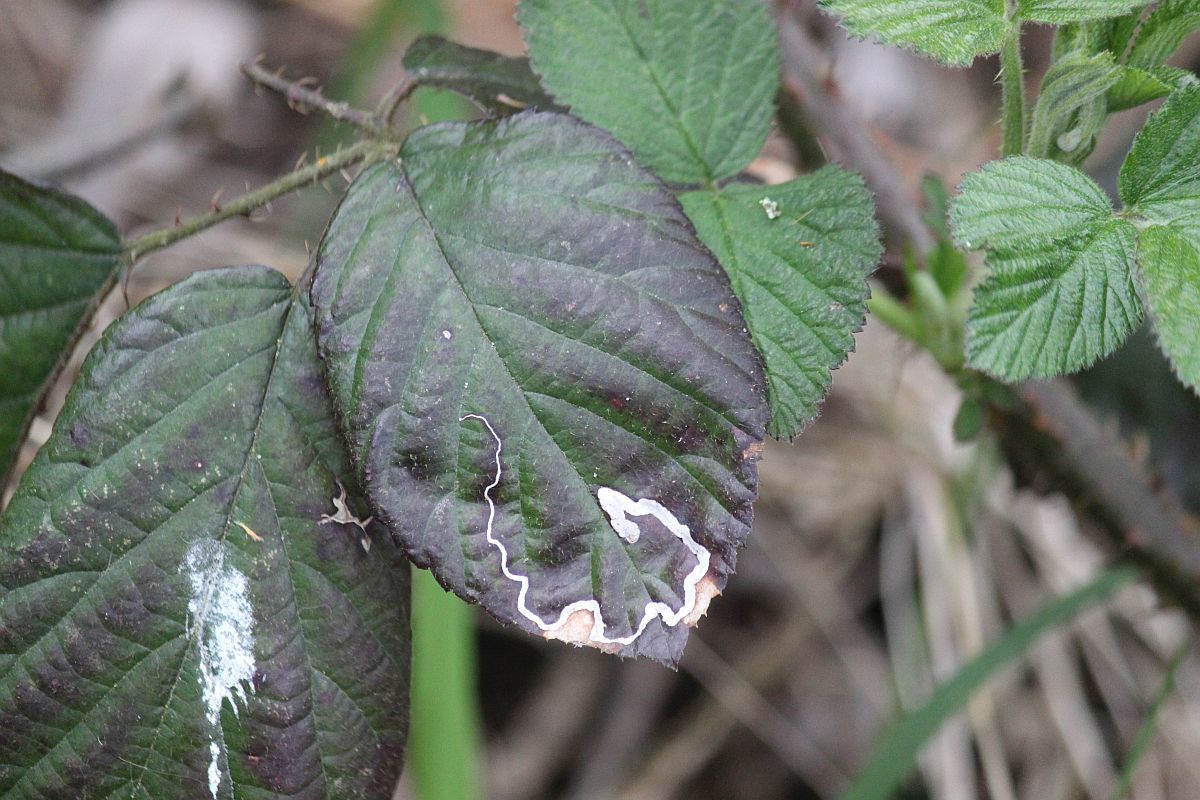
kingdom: Animalia
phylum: Arthropoda
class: Insecta
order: Lepidoptera
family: Nepticulidae
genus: Stigmella
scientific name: Stigmella aurella
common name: Golden pigmy
